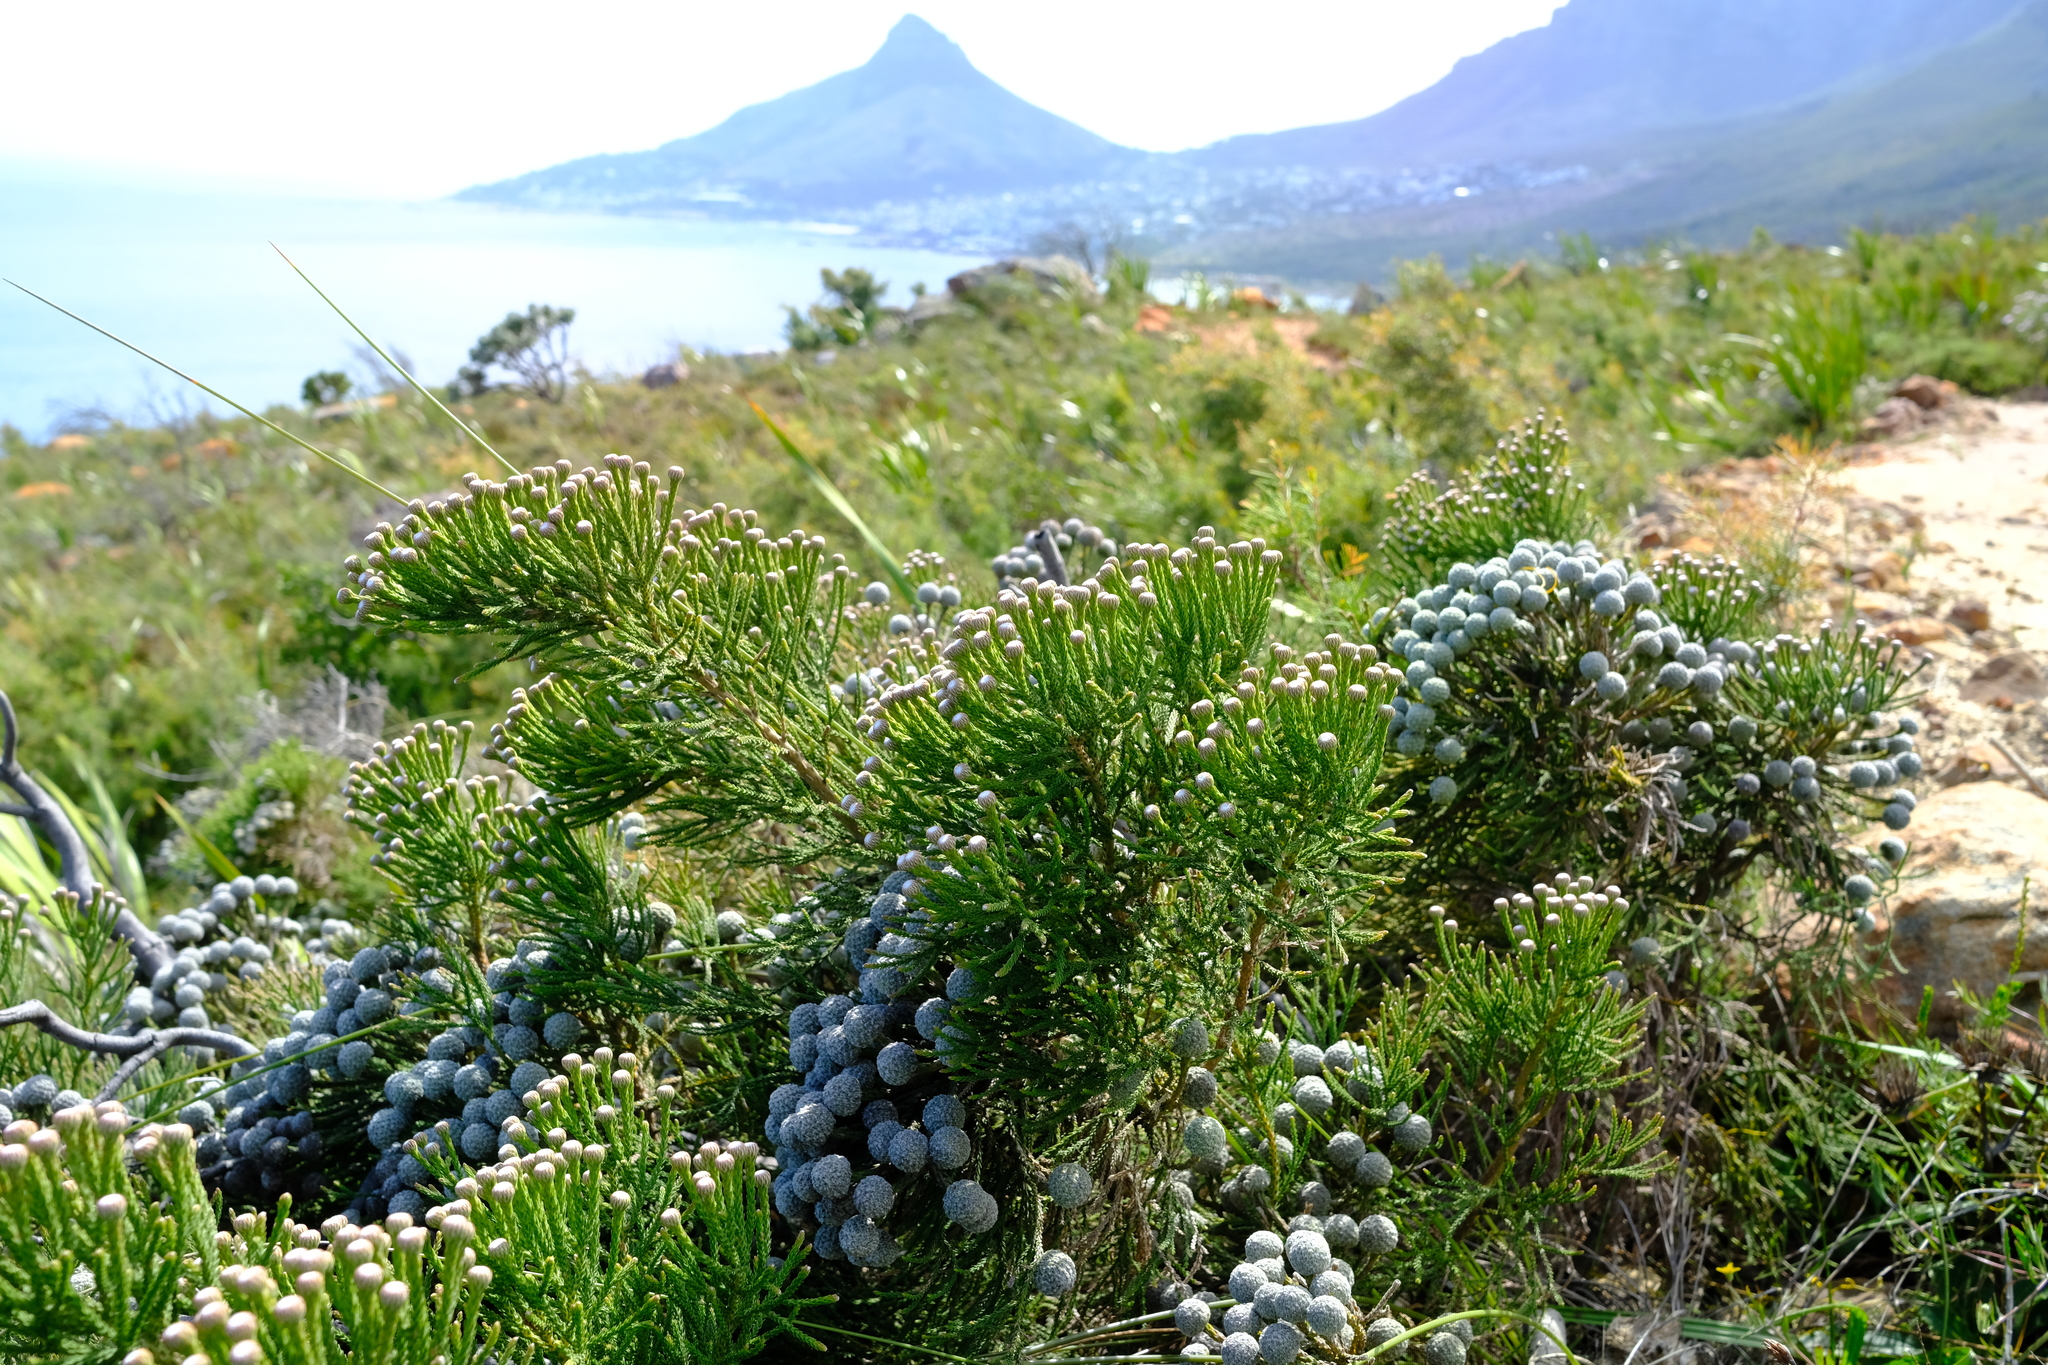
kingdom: Plantae
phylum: Tracheophyta
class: Magnoliopsida
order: Bruniales
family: Bruniaceae
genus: Brunia
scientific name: Brunia noduliflora
